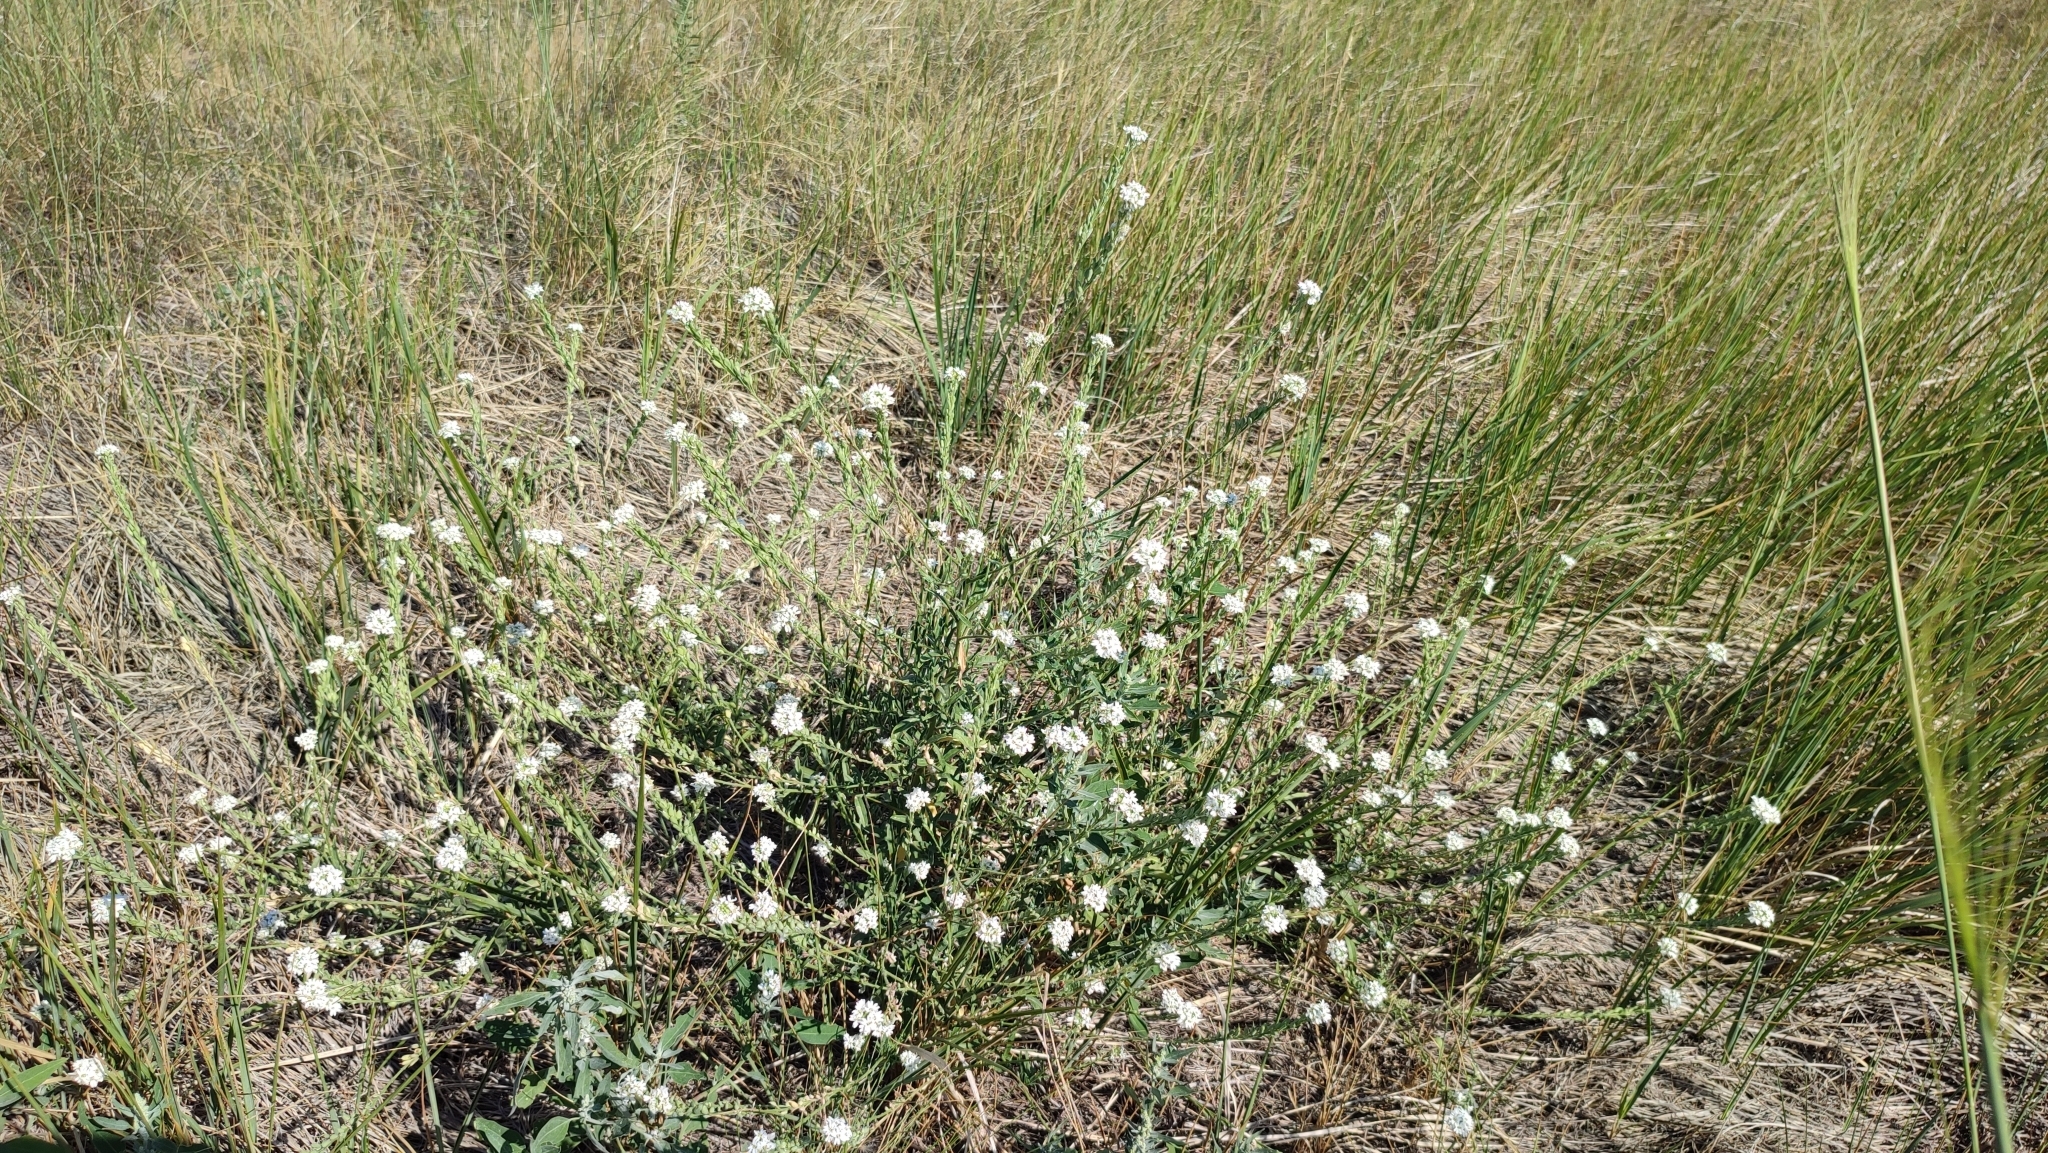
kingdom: Plantae
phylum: Tracheophyta
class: Magnoliopsida
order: Brassicales
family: Brassicaceae
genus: Berteroa
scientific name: Berteroa incana
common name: Hoary alison
